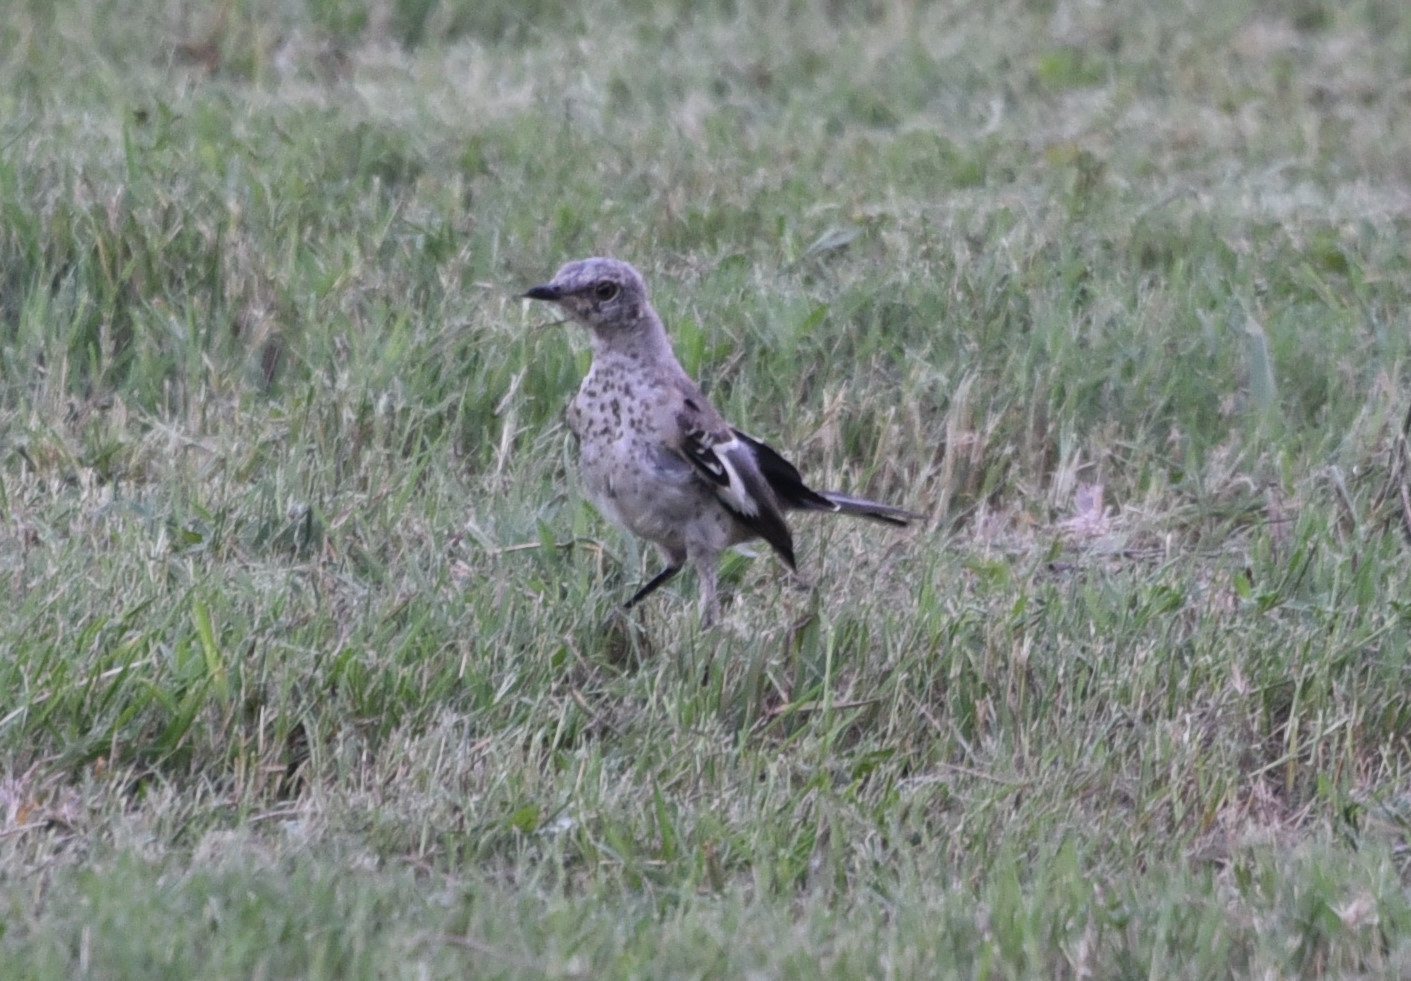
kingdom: Animalia
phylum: Chordata
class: Aves
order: Passeriformes
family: Mimidae
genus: Mimus
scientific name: Mimus polyglottos
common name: Northern mockingbird
